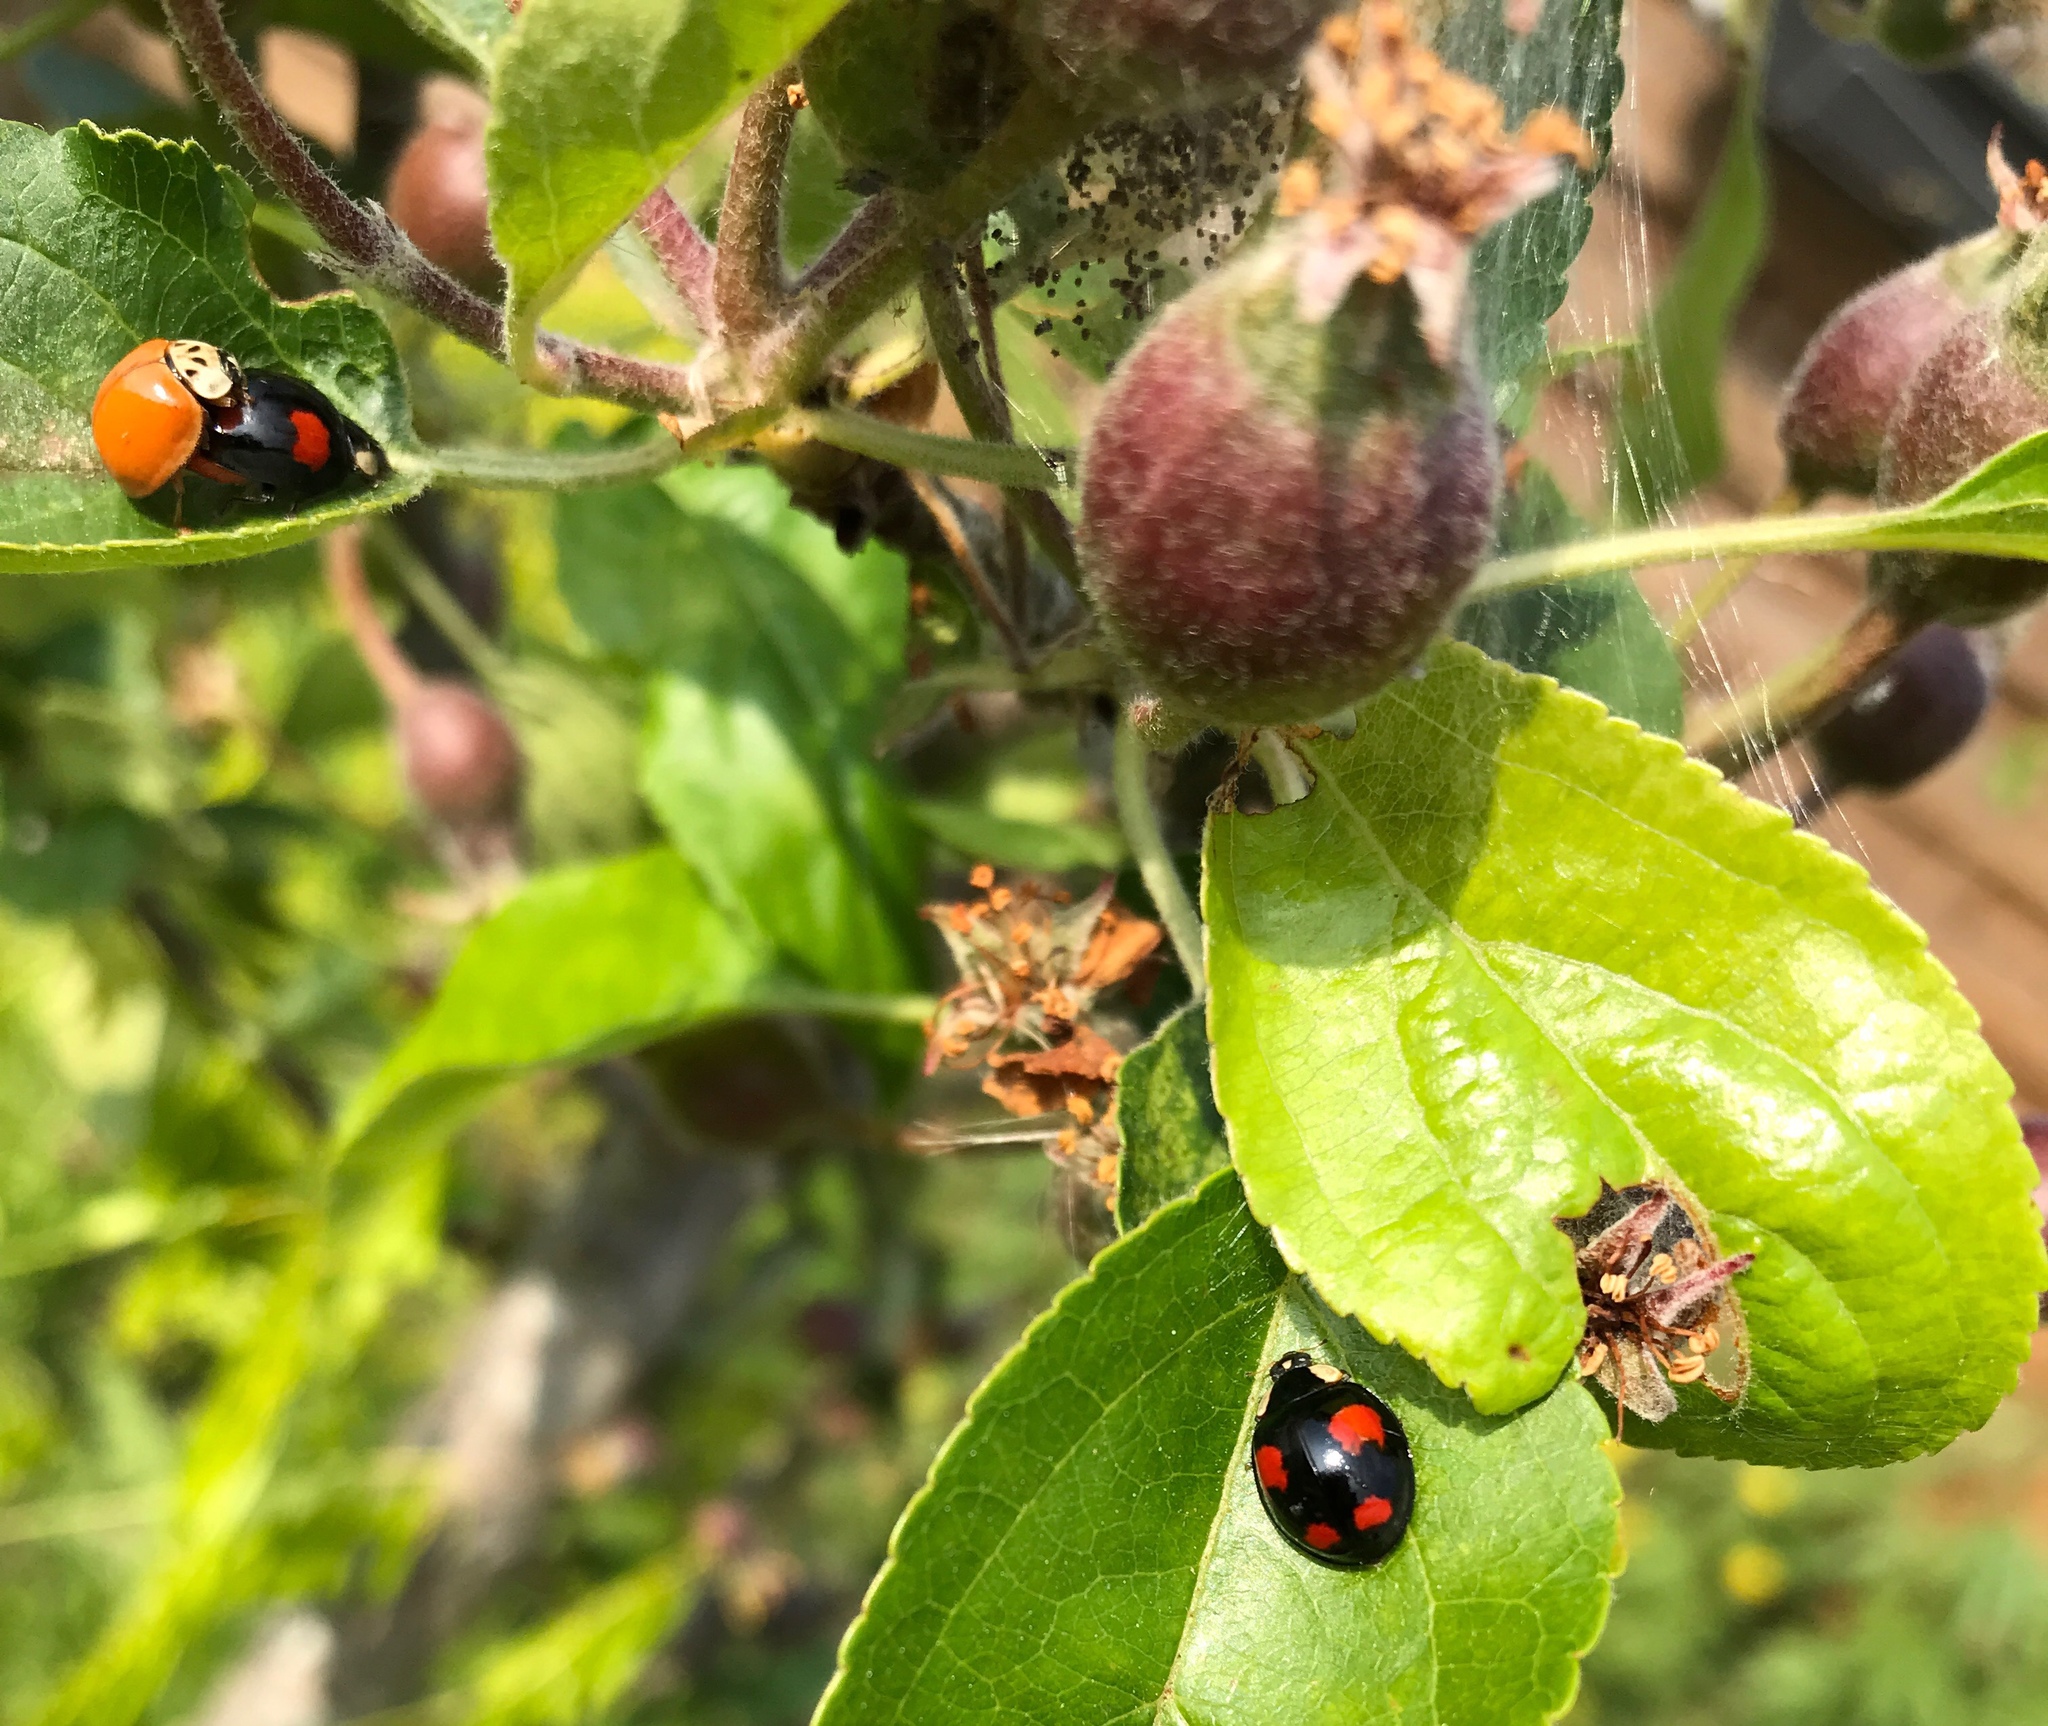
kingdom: Animalia
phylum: Arthropoda
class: Insecta
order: Coleoptera
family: Coccinellidae
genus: Harmonia
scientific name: Harmonia axyridis
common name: Harlequin ladybird
